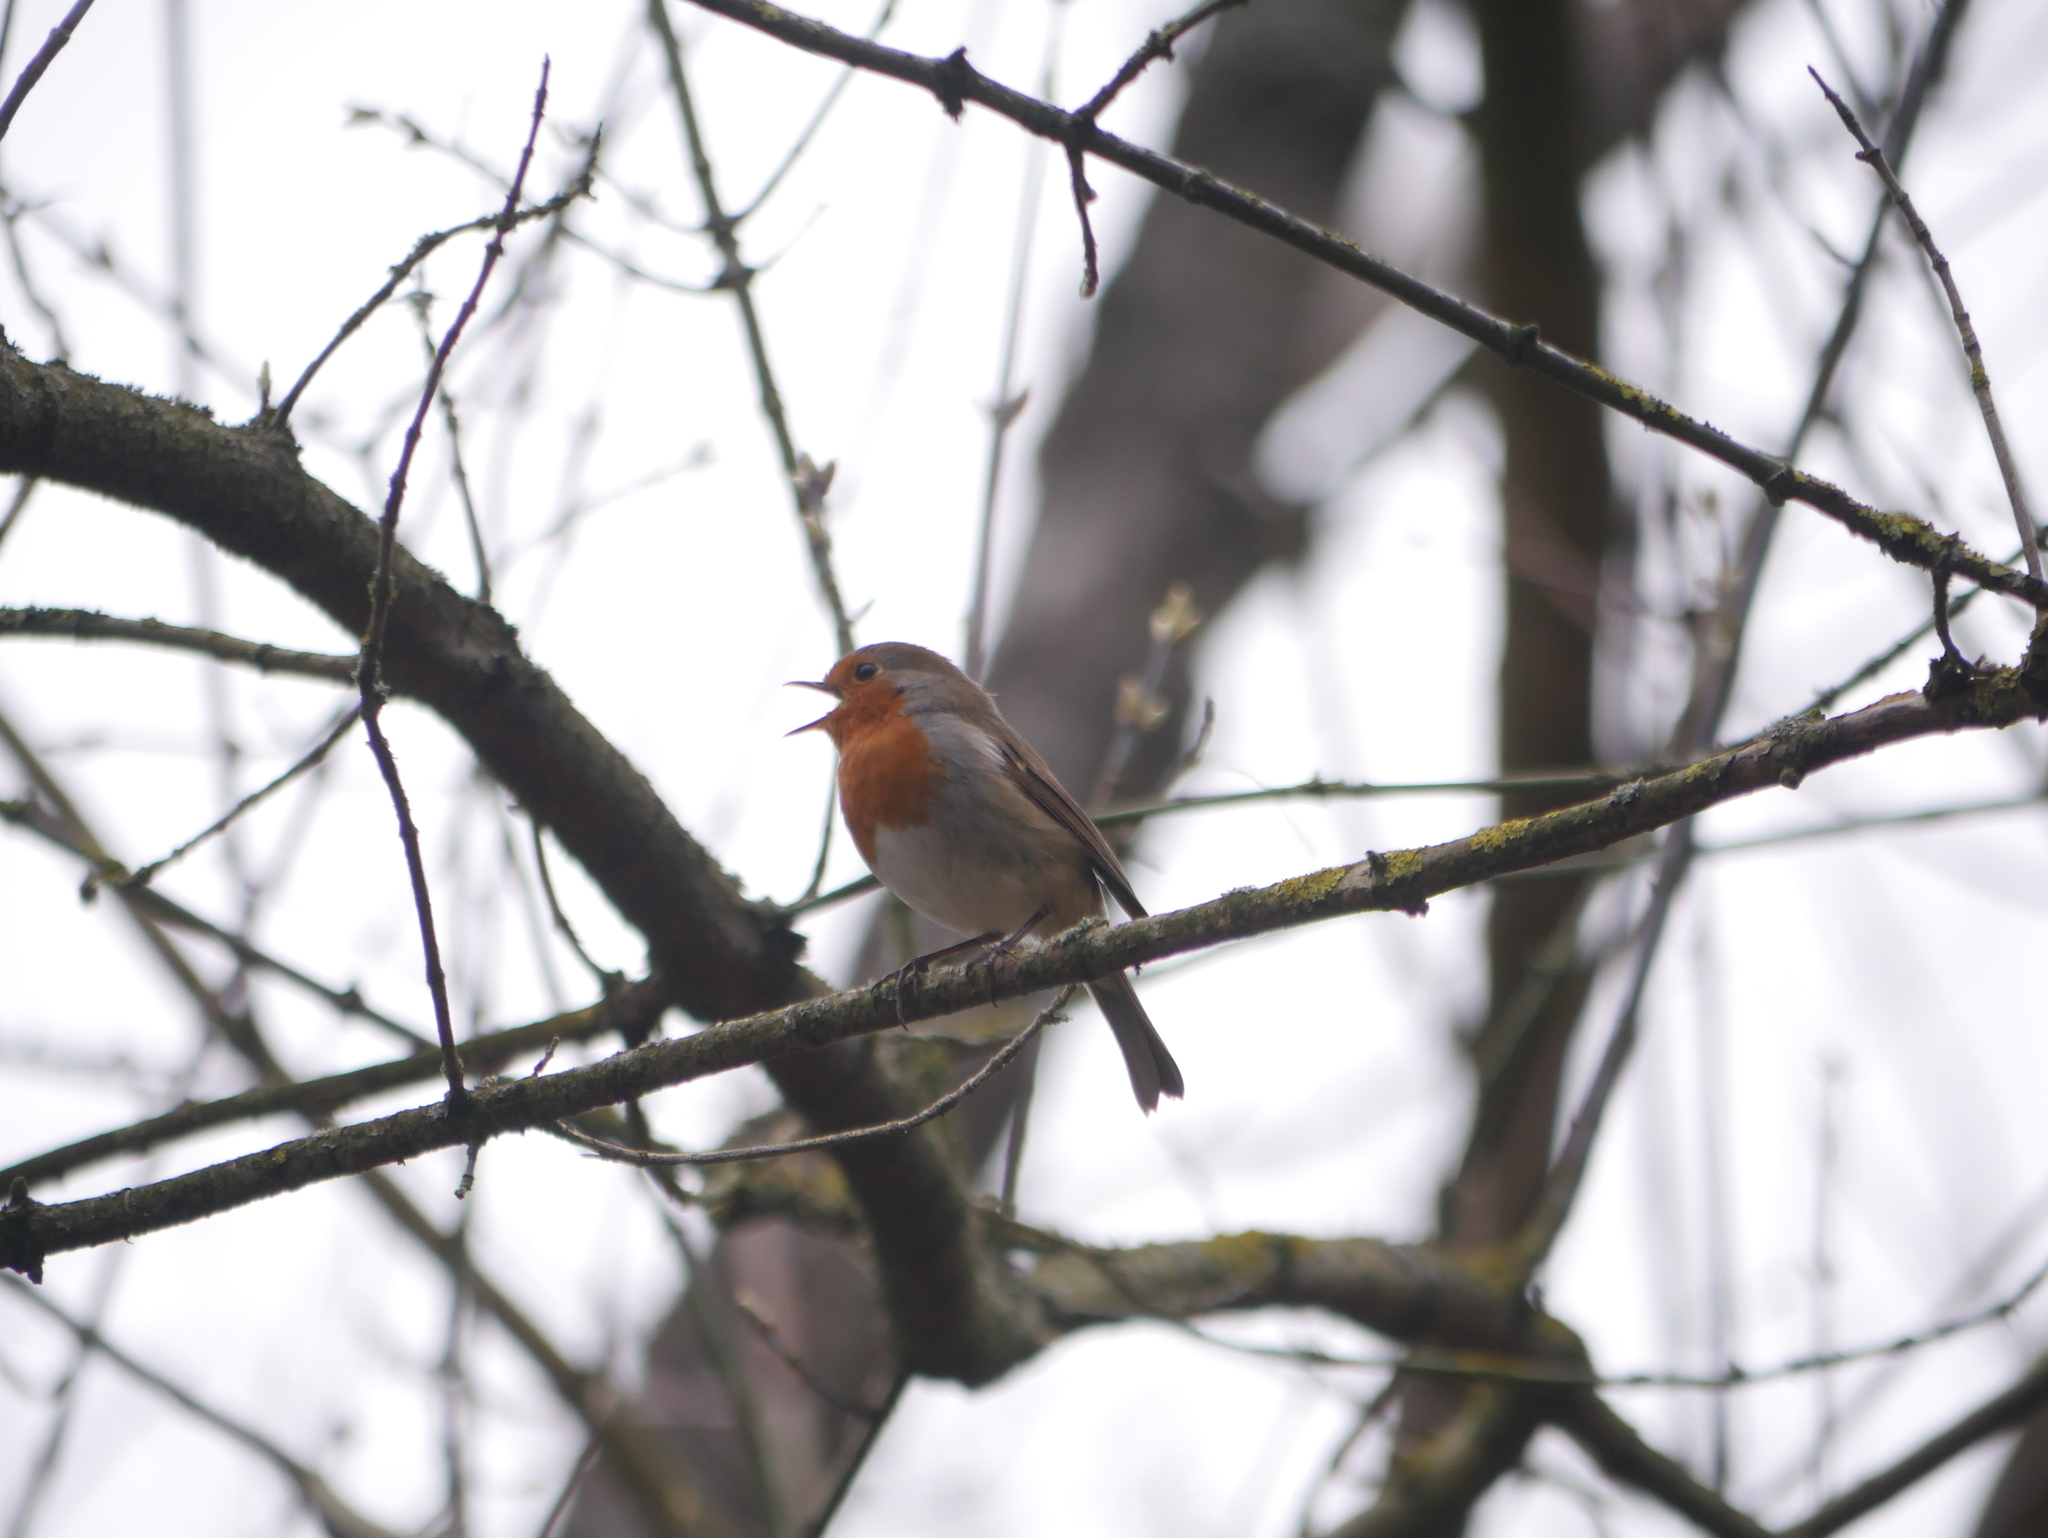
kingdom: Animalia
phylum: Chordata
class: Aves
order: Passeriformes
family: Muscicapidae
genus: Erithacus
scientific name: Erithacus rubecula
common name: European robin
